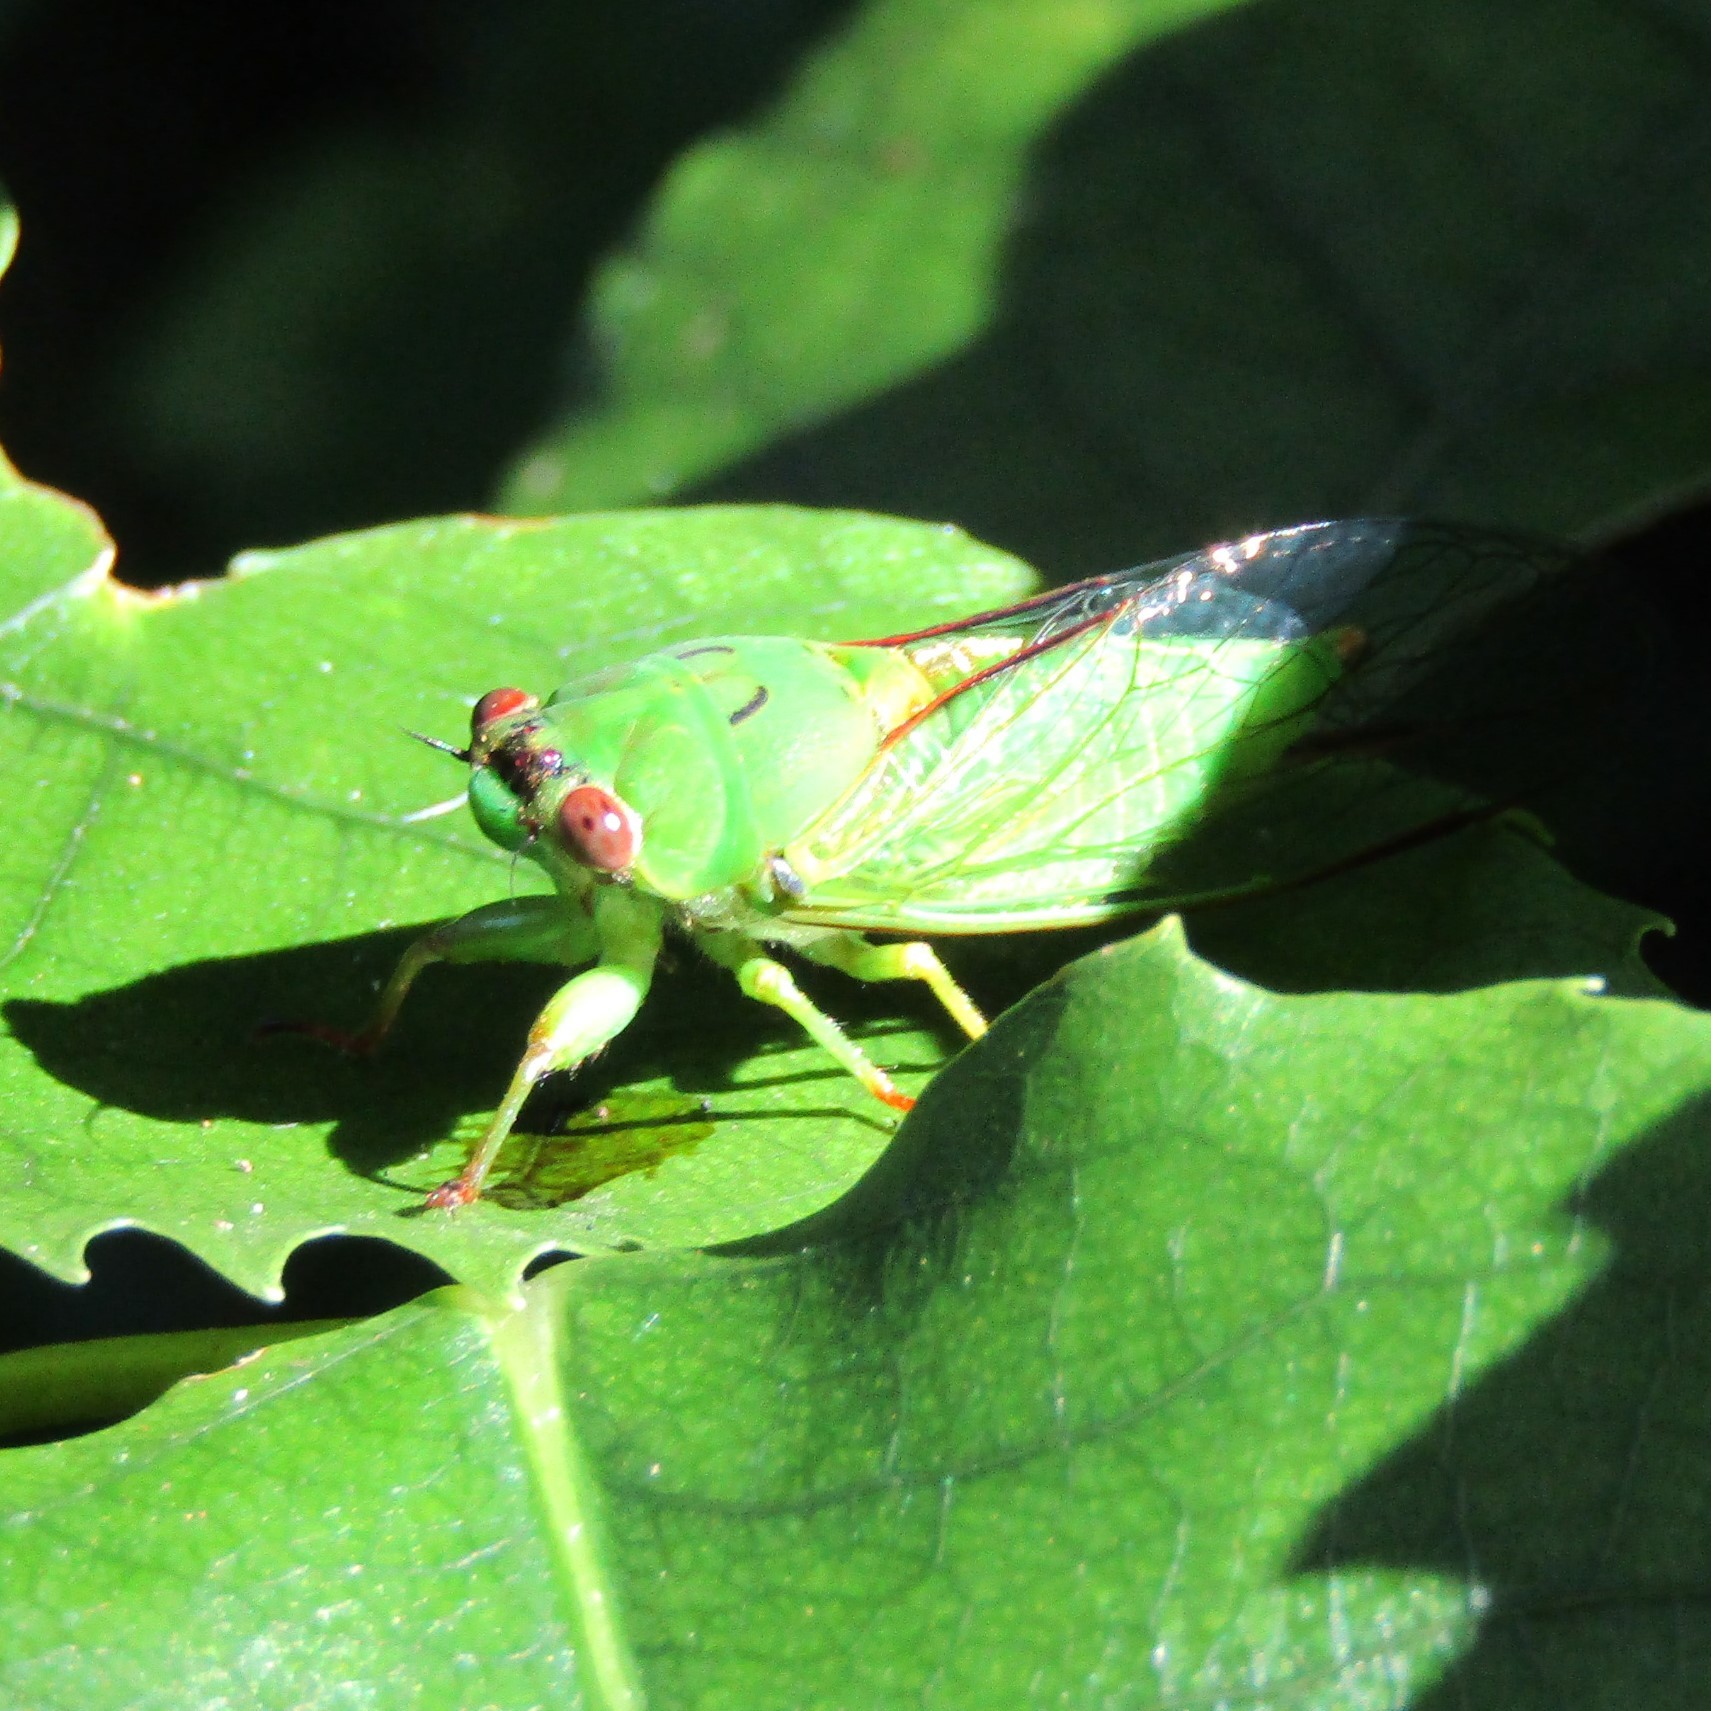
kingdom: Animalia
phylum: Arthropoda
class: Insecta
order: Hemiptera
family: Cicadidae
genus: Kikihia
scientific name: Kikihia ochrina
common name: April green cicada
